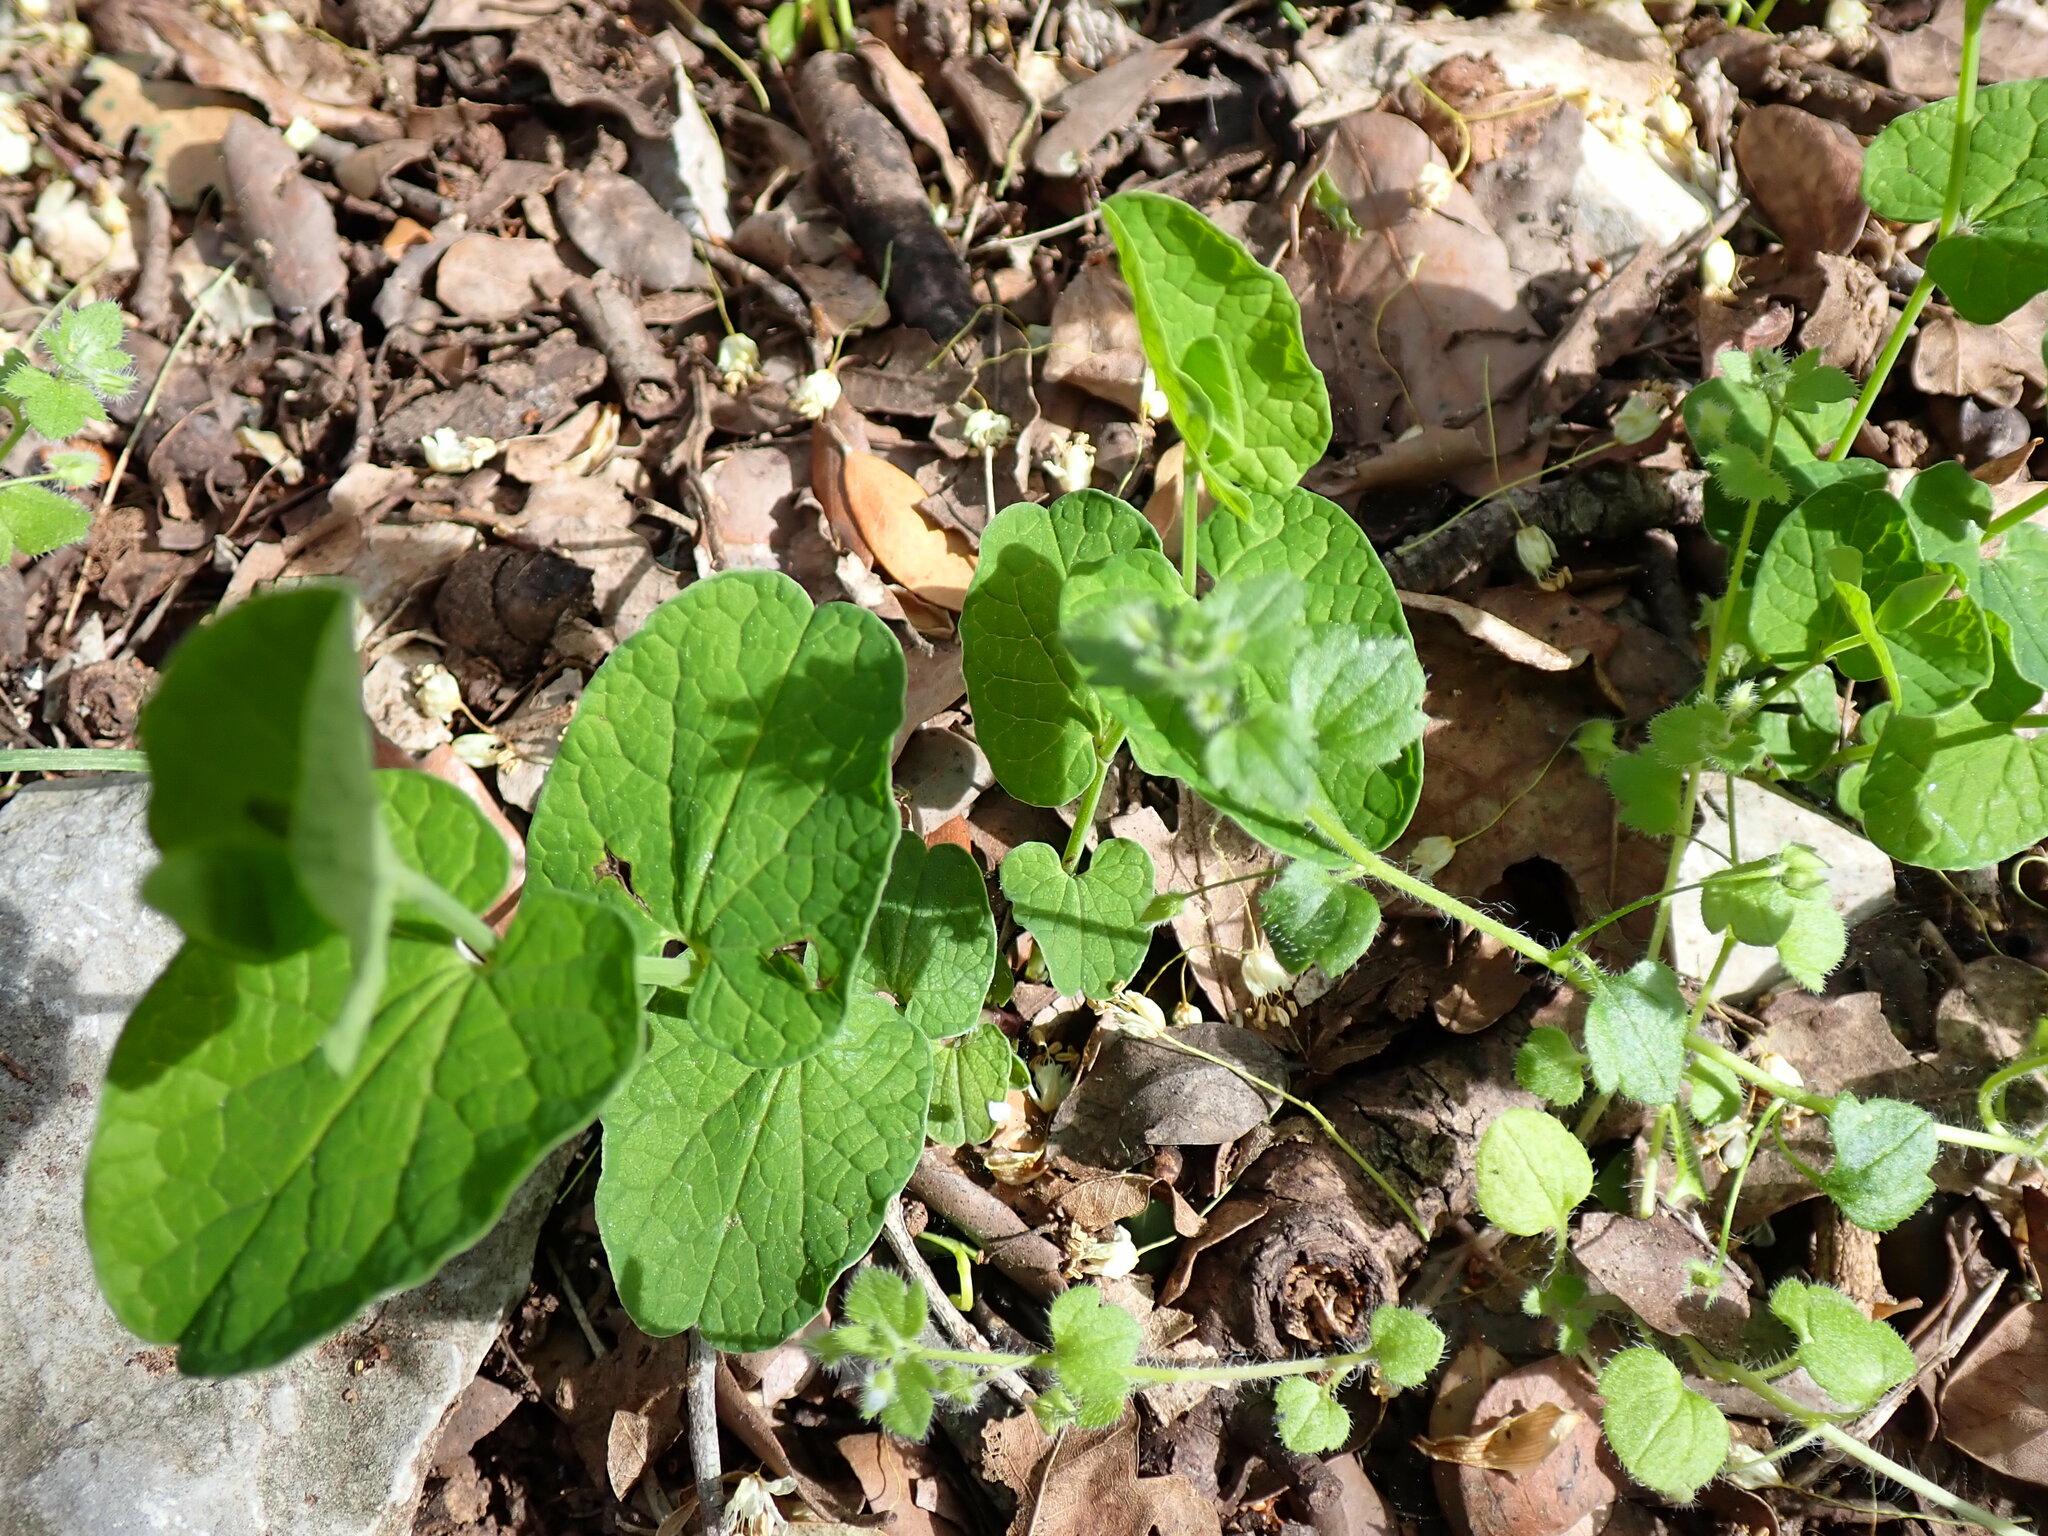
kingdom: Plantae
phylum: Tracheophyta
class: Magnoliopsida
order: Piperales
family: Aristolochiaceae
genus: Aristolochia
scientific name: Aristolochia rotunda
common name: Smearwort
